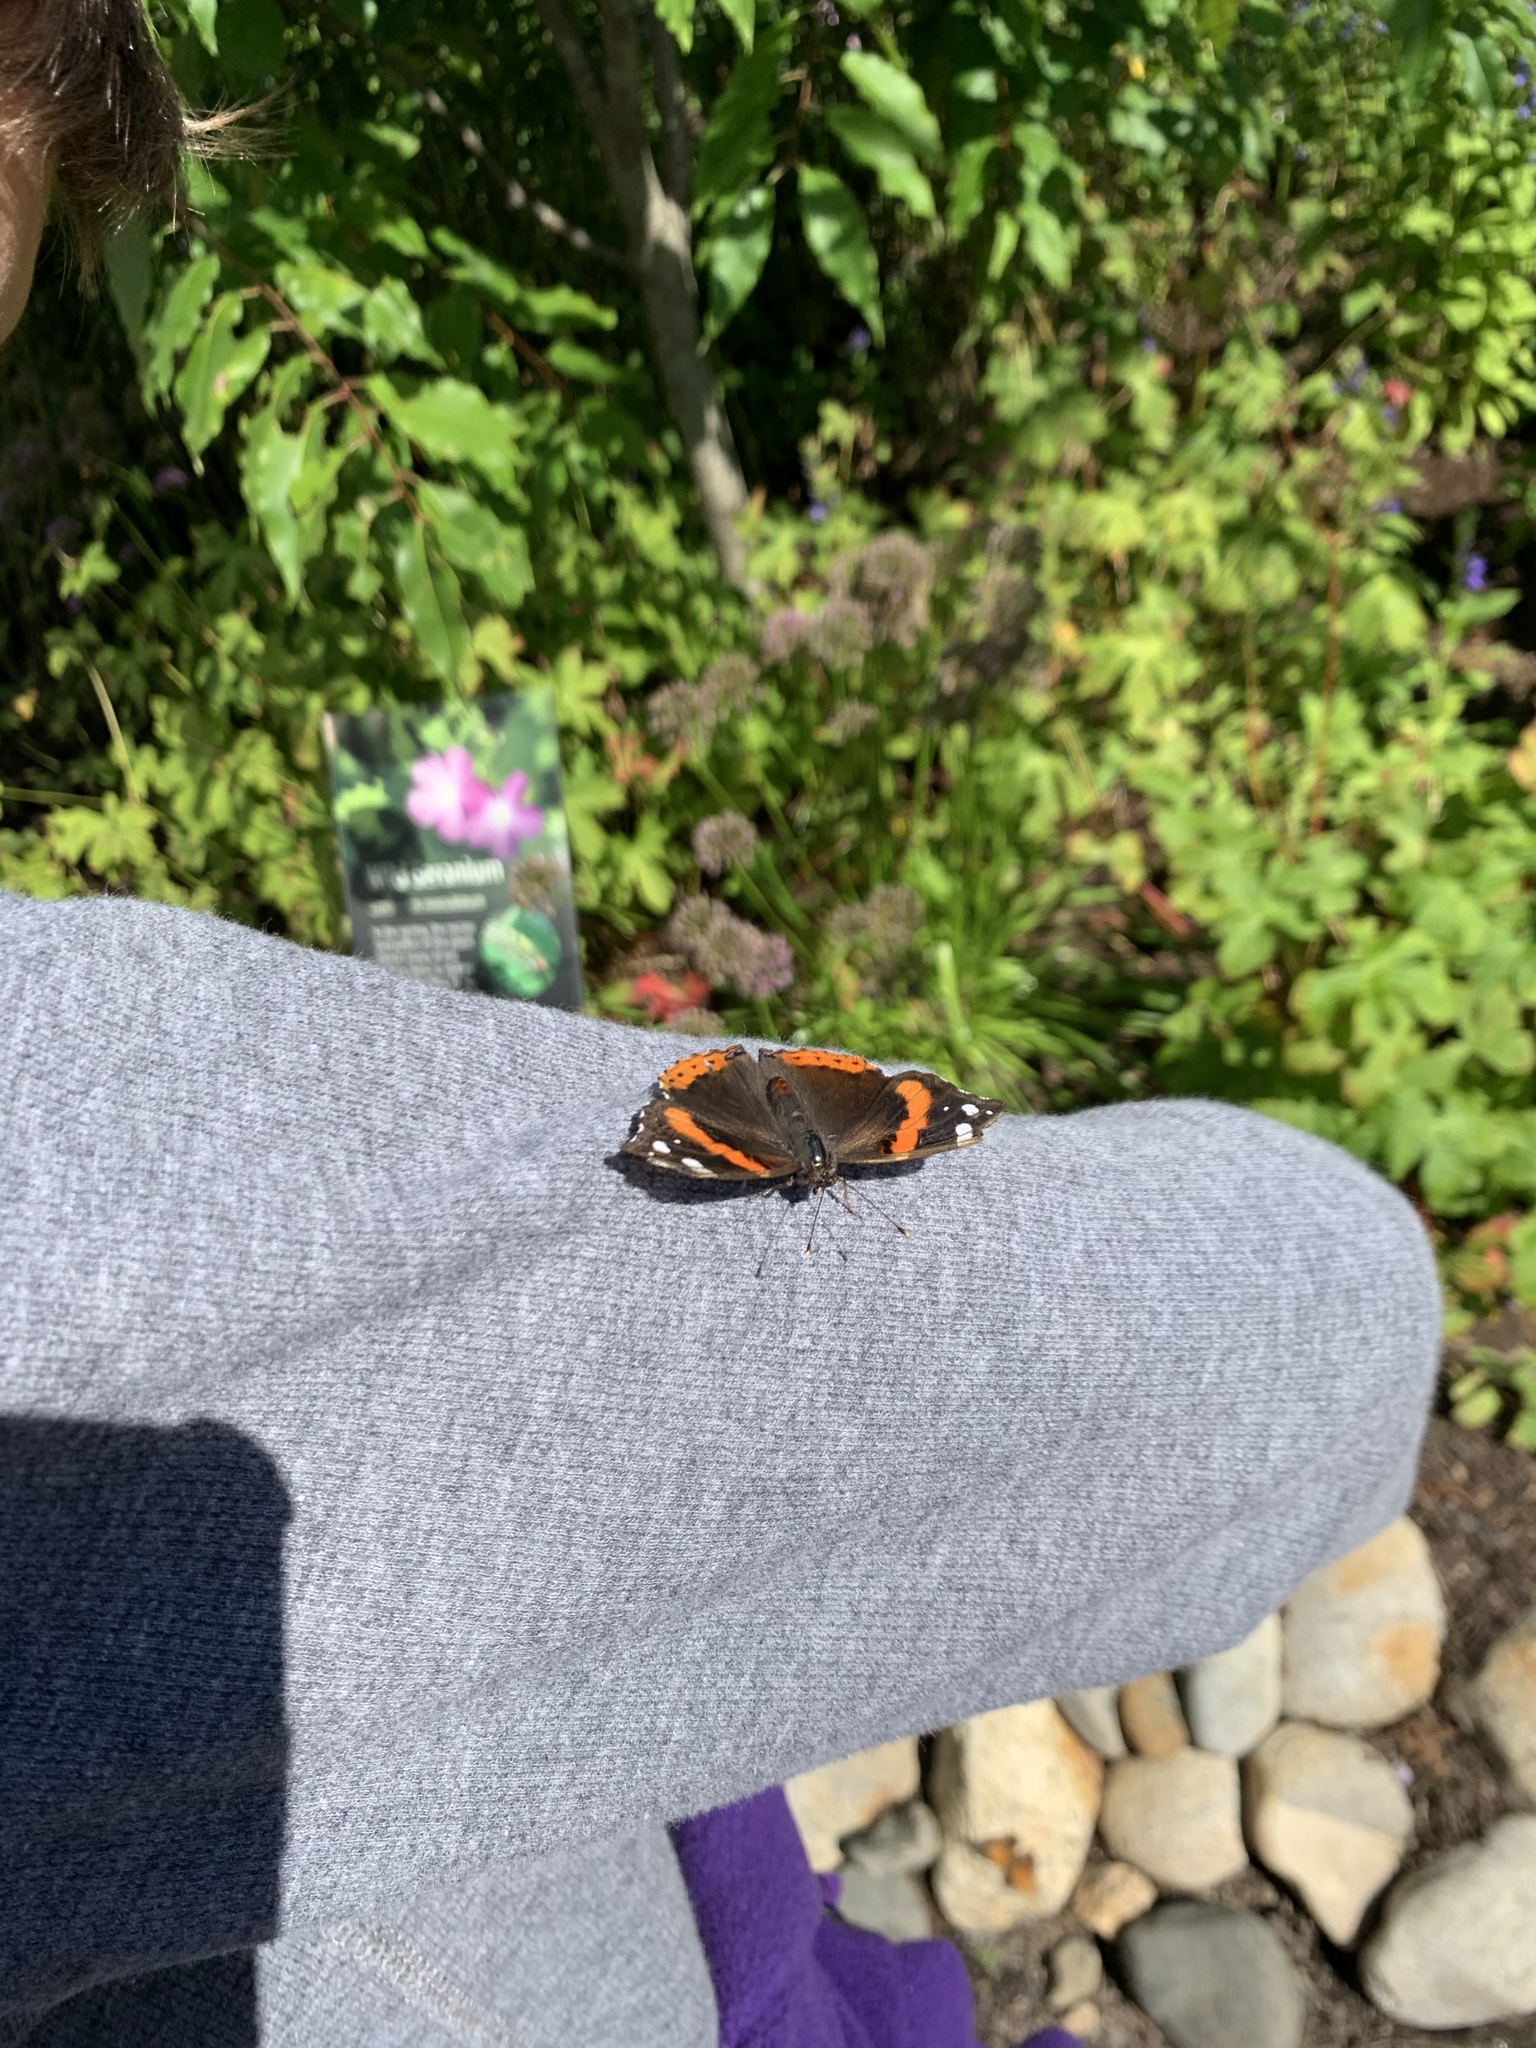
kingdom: Animalia
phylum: Arthropoda
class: Insecta
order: Lepidoptera
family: Nymphalidae
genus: Vanessa
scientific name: Vanessa atalanta
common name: Red admiral
